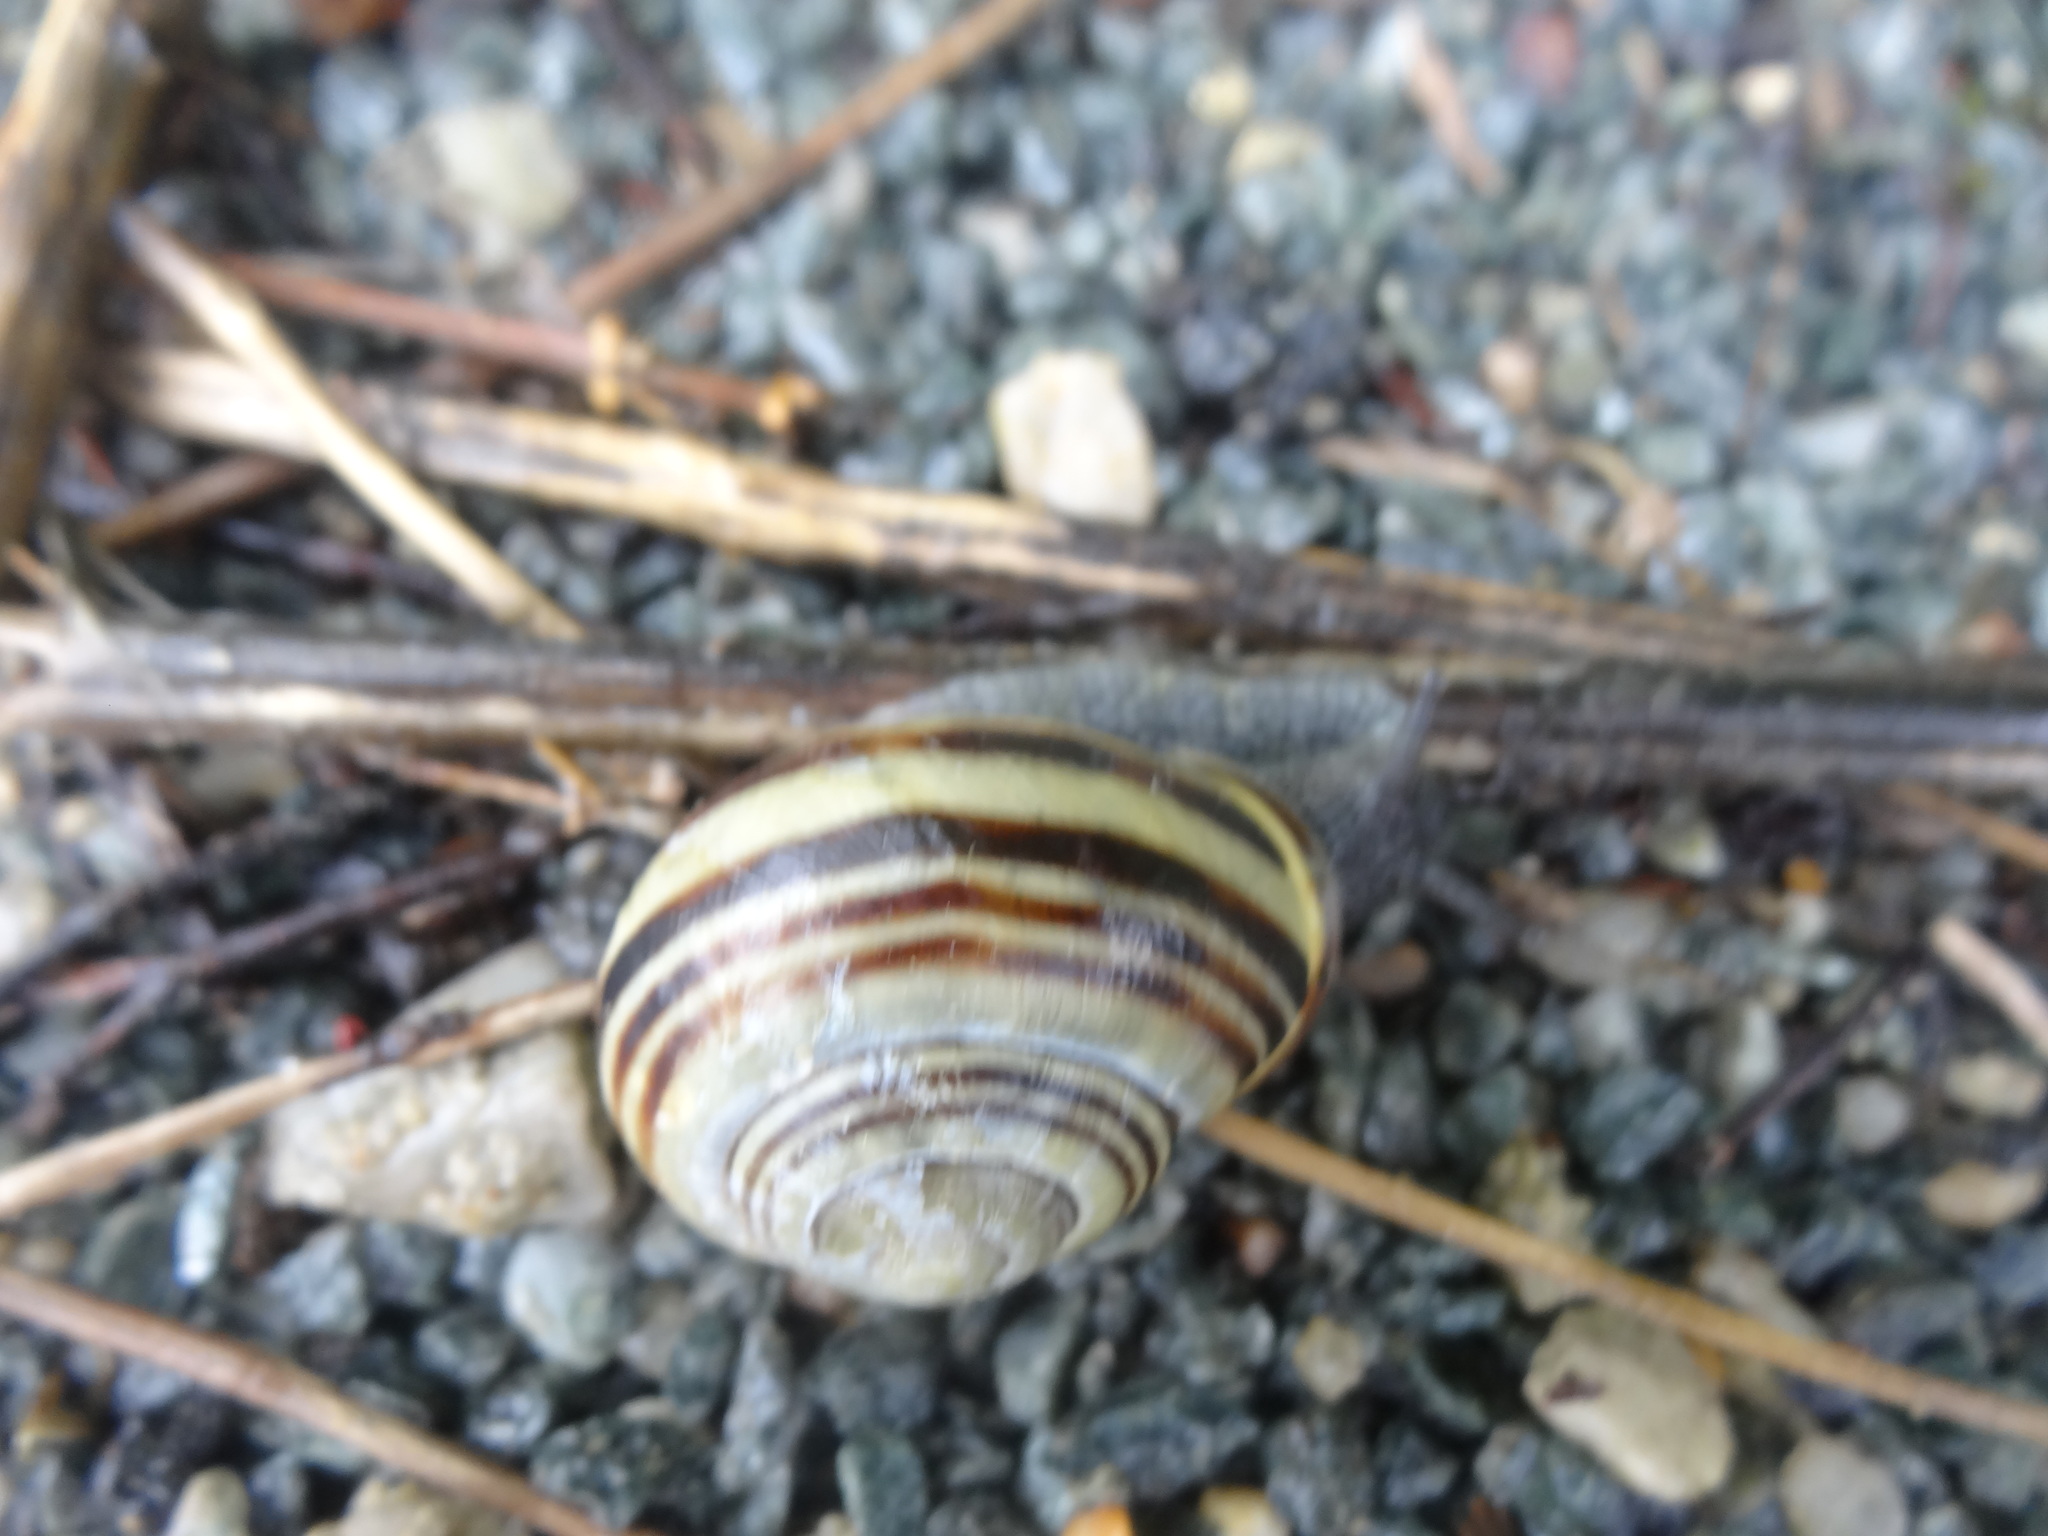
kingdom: Animalia
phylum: Mollusca
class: Gastropoda
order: Stylommatophora
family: Helicidae
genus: Cepaea
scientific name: Cepaea nemoralis
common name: Grovesnail
